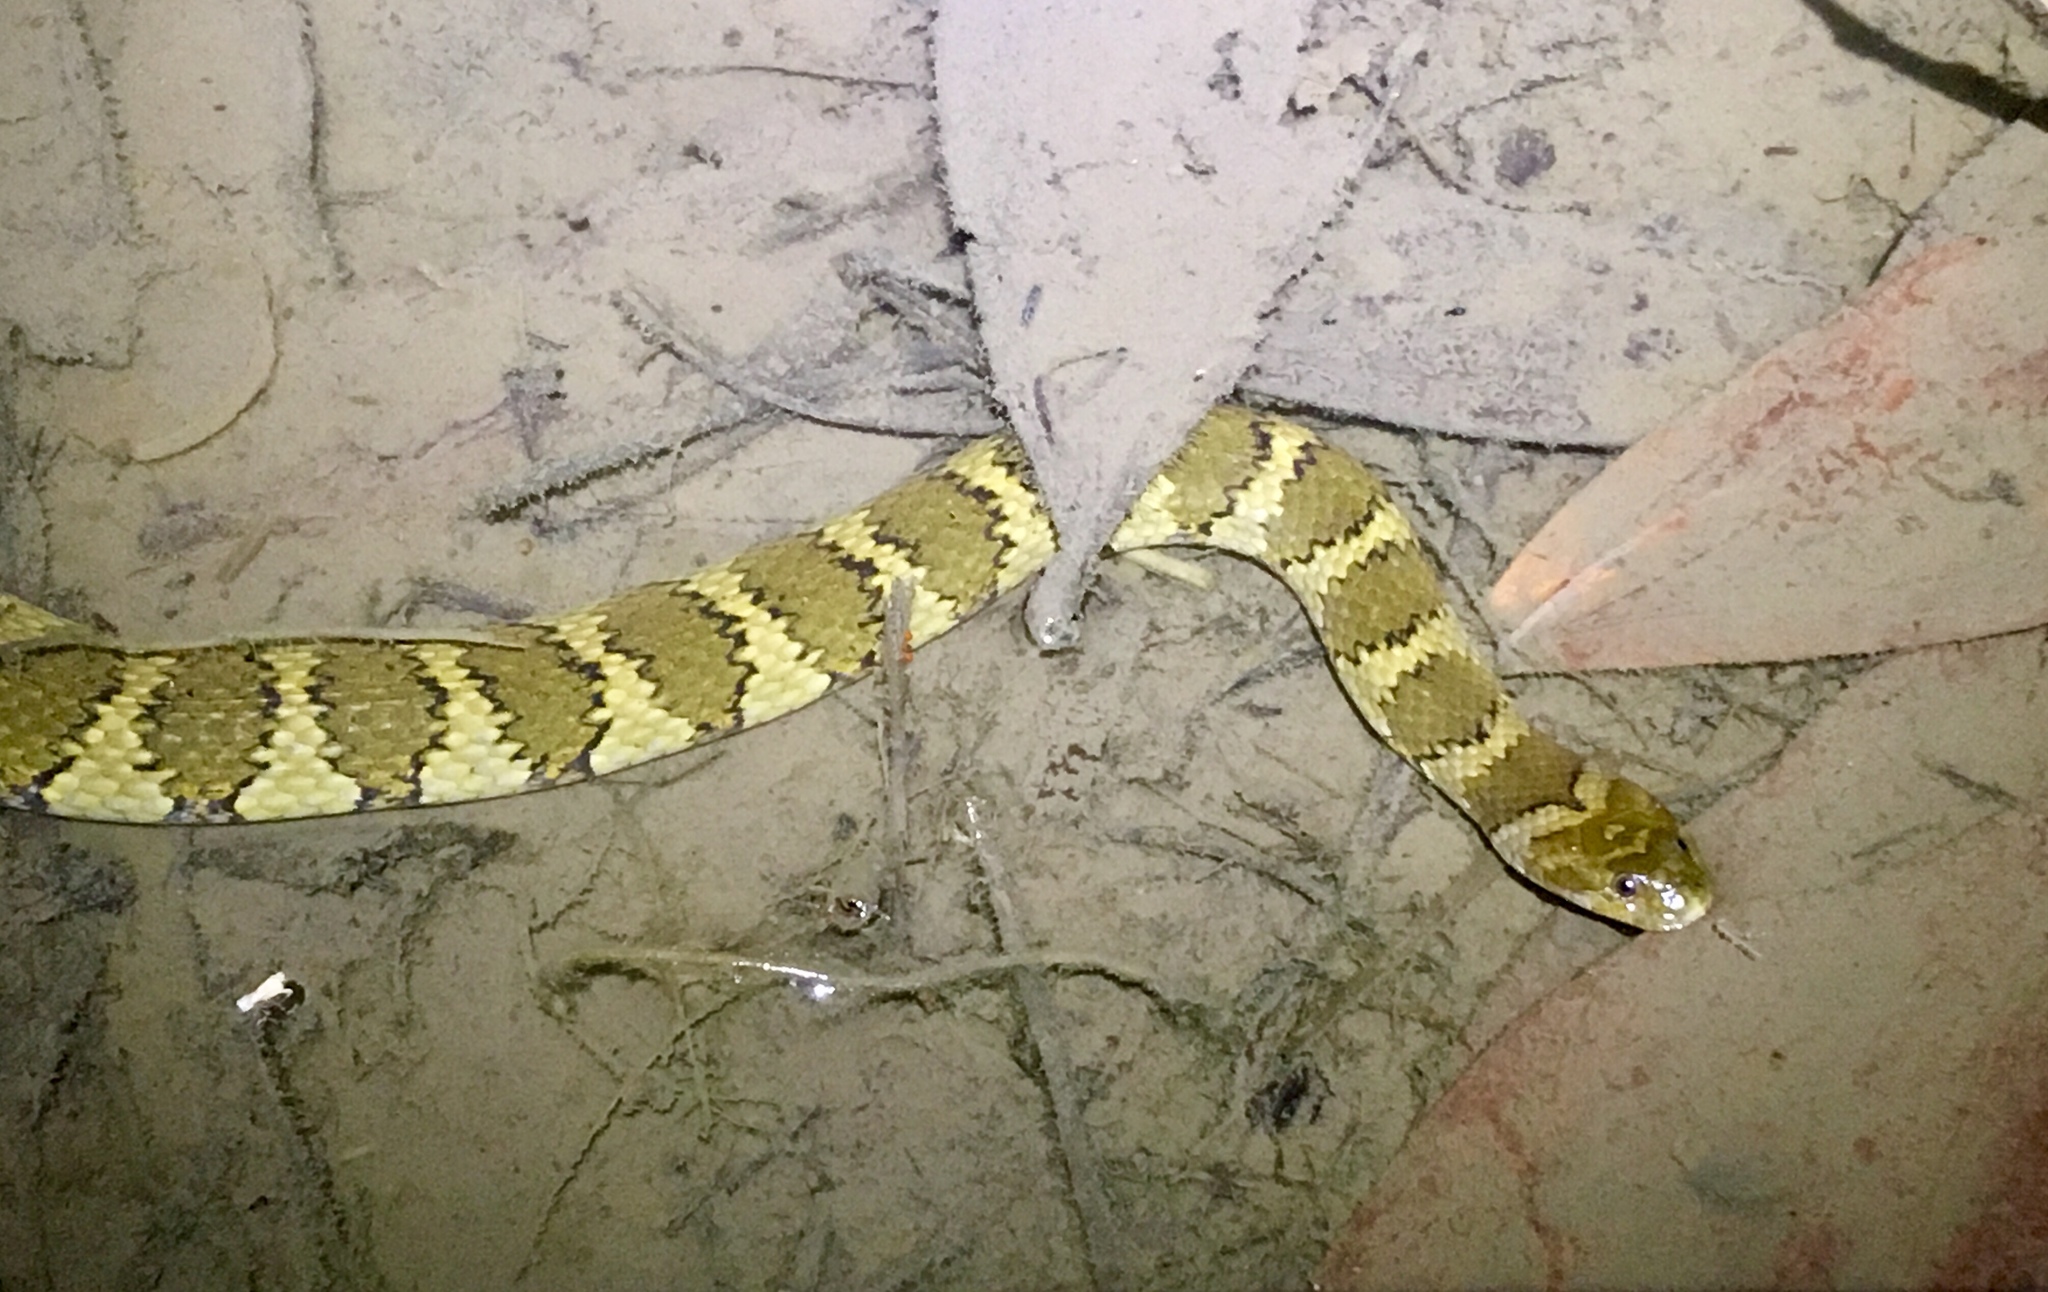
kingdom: Animalia
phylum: Chordata
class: Squamata
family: Colubridae
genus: Helicops
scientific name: Helicops angulatus
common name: Mountain keelback
